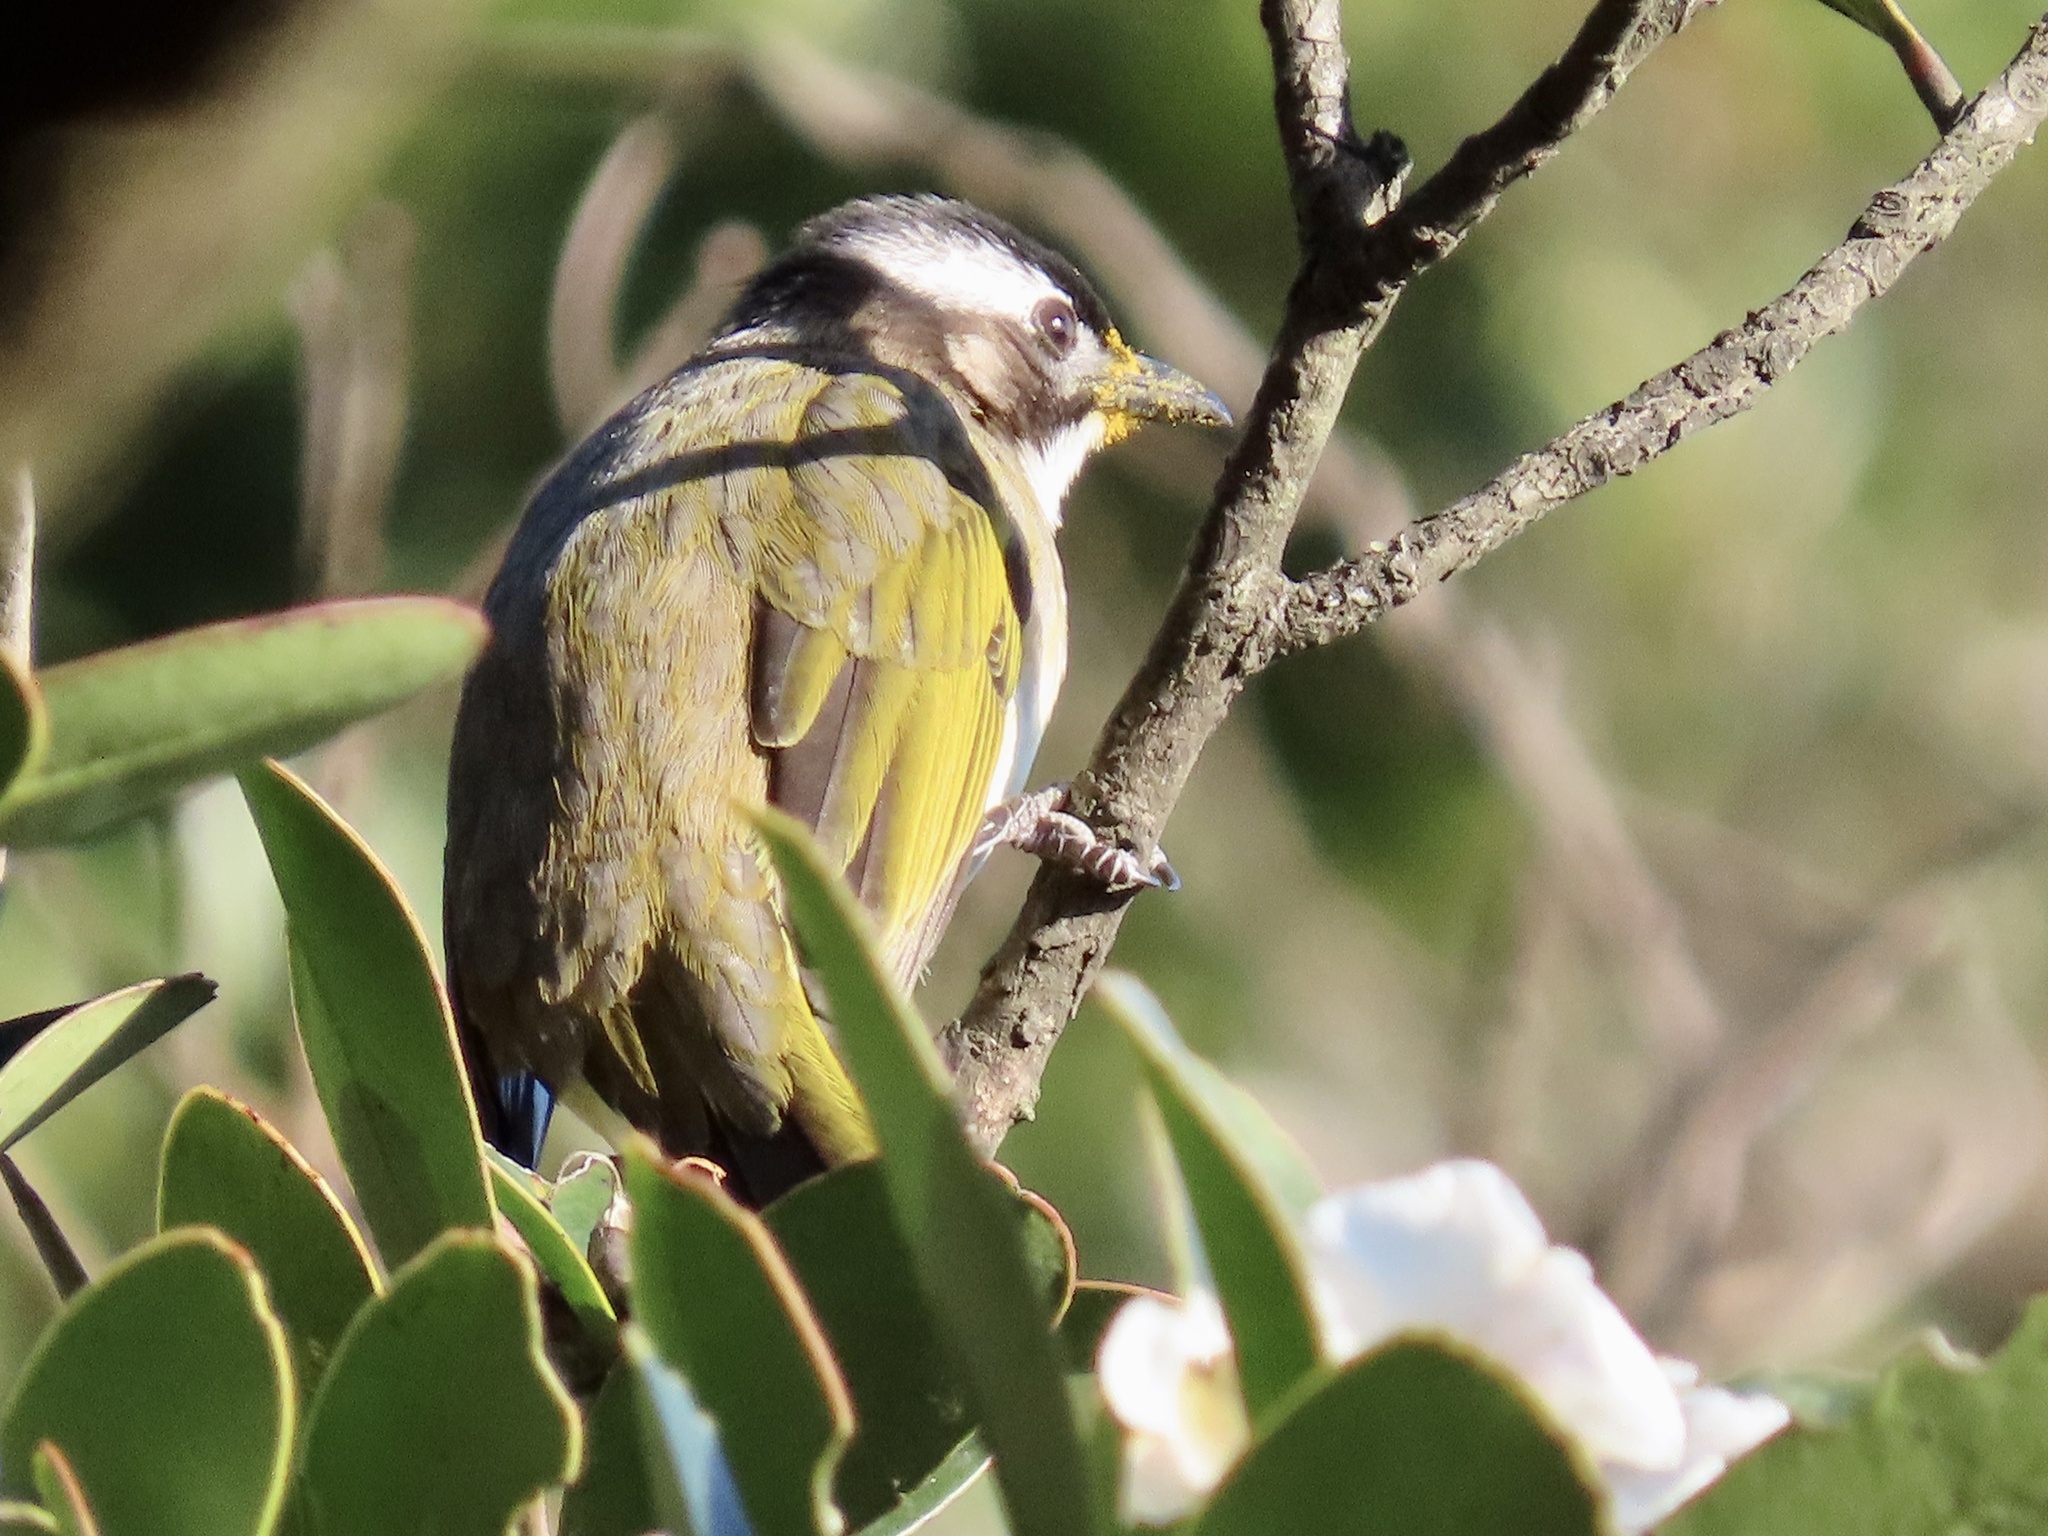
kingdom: Animalia
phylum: Chordata
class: Aves
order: Passeriformes
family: Pycnonotidae
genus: Pycnonotus
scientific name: Pycnonotus sinensis
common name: Light-vented bulbul
